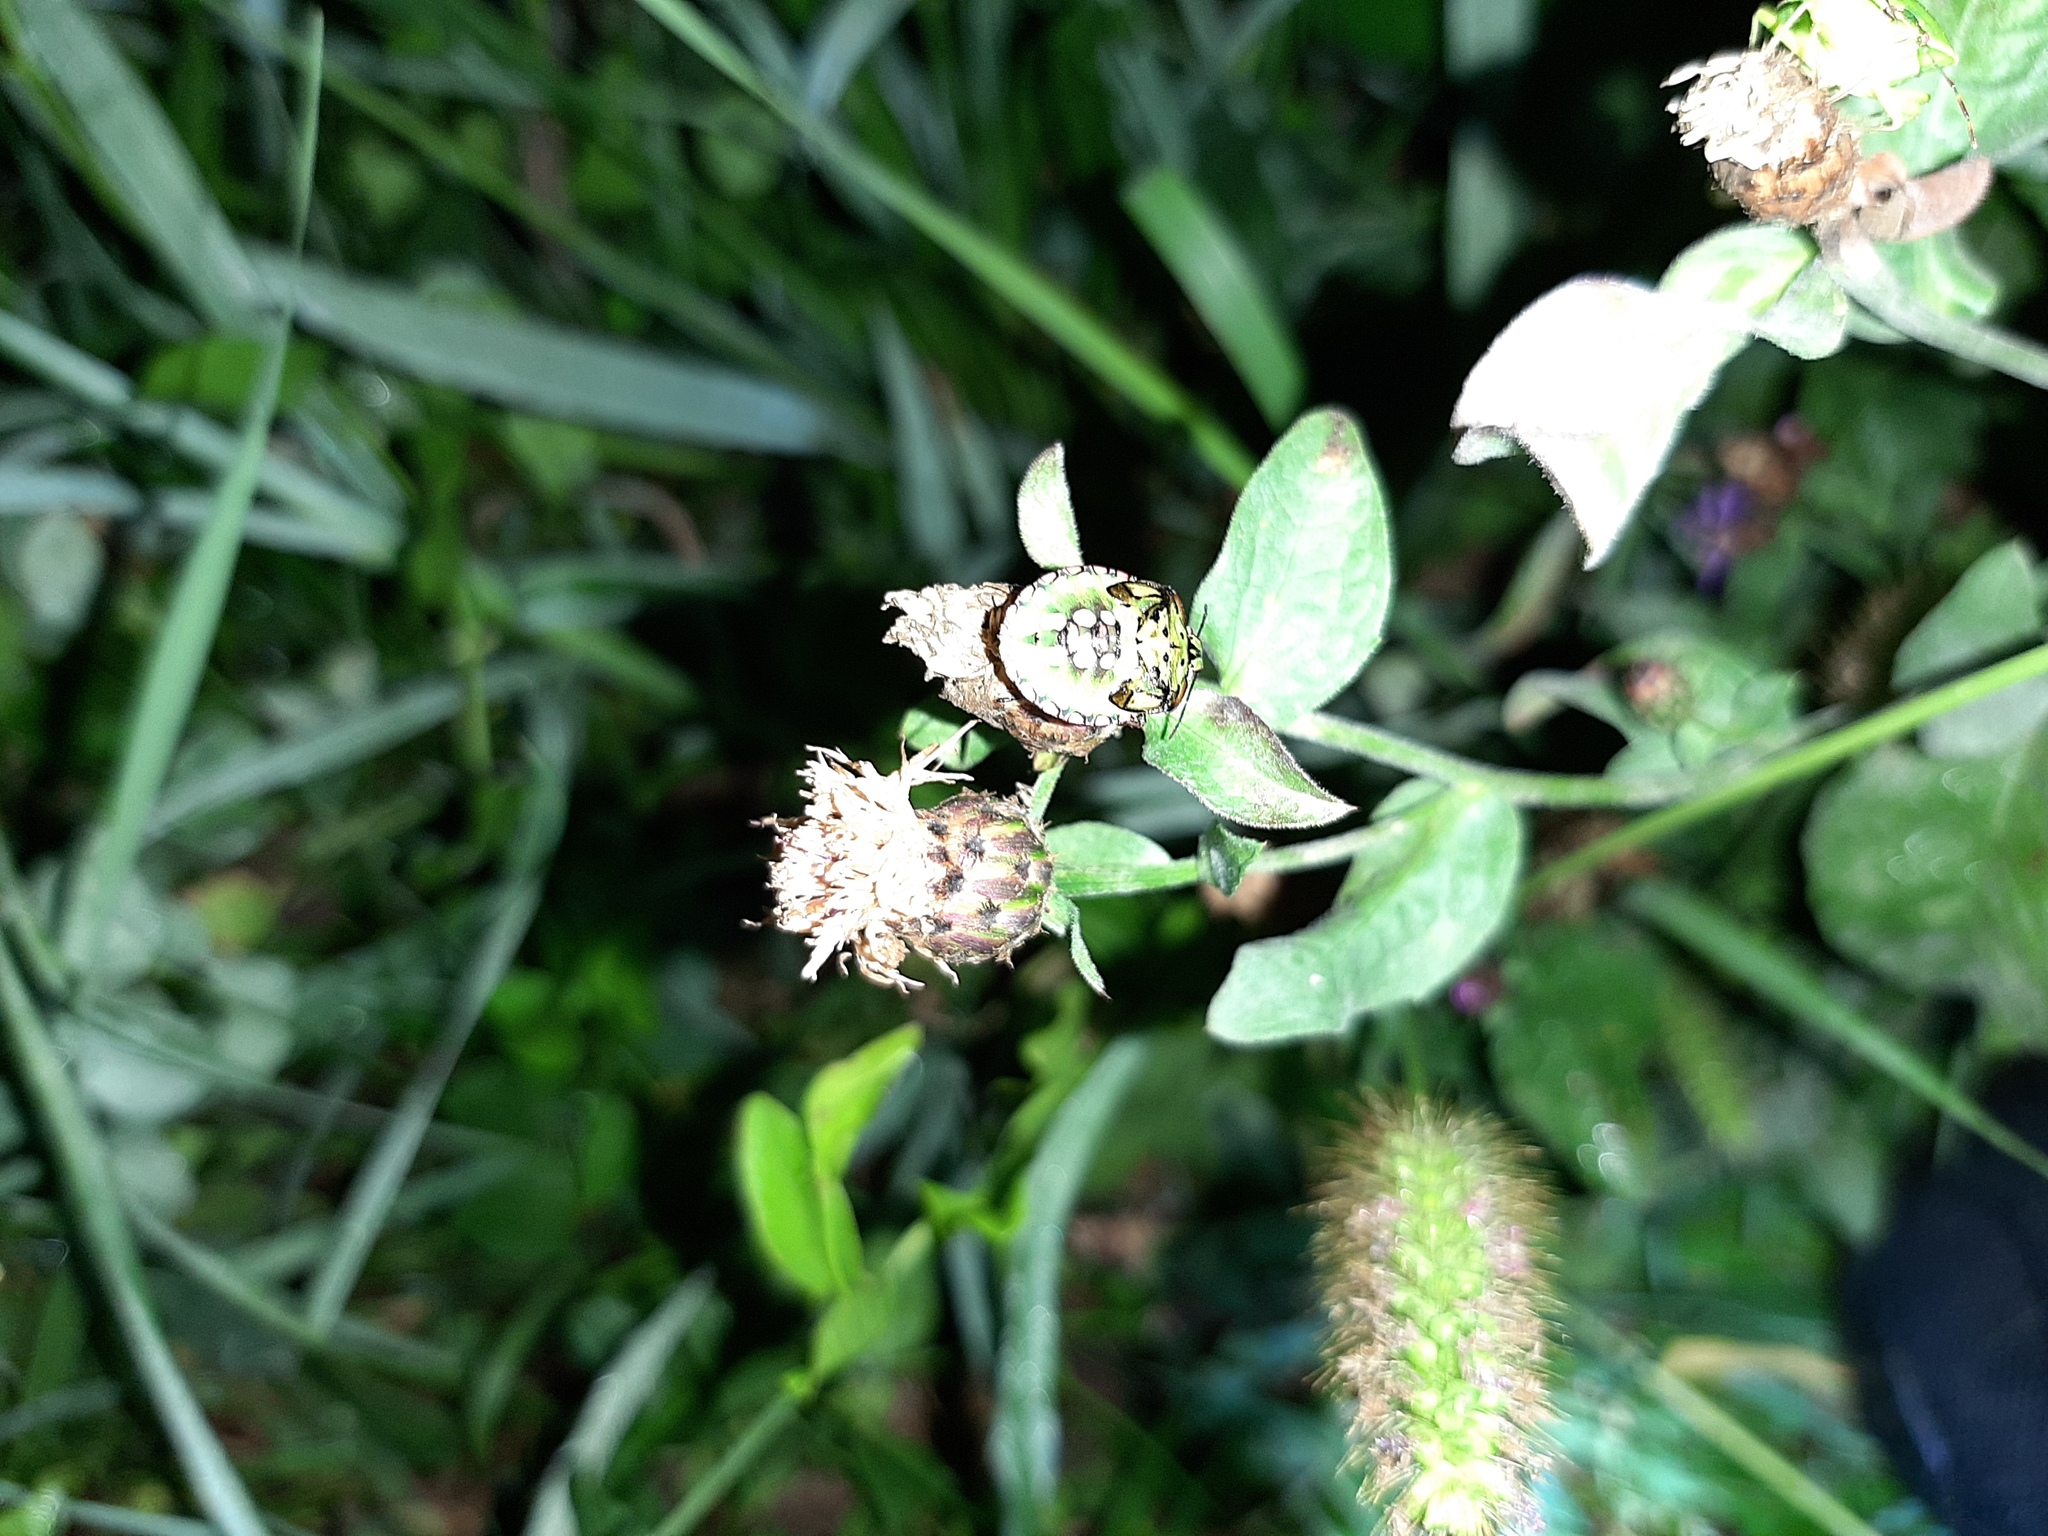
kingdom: Animalia
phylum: Arthropoda
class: Insecta
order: Hemiptera
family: Pentatomidae
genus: Nezara
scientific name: Nezara viridula
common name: Southern green stink bug
